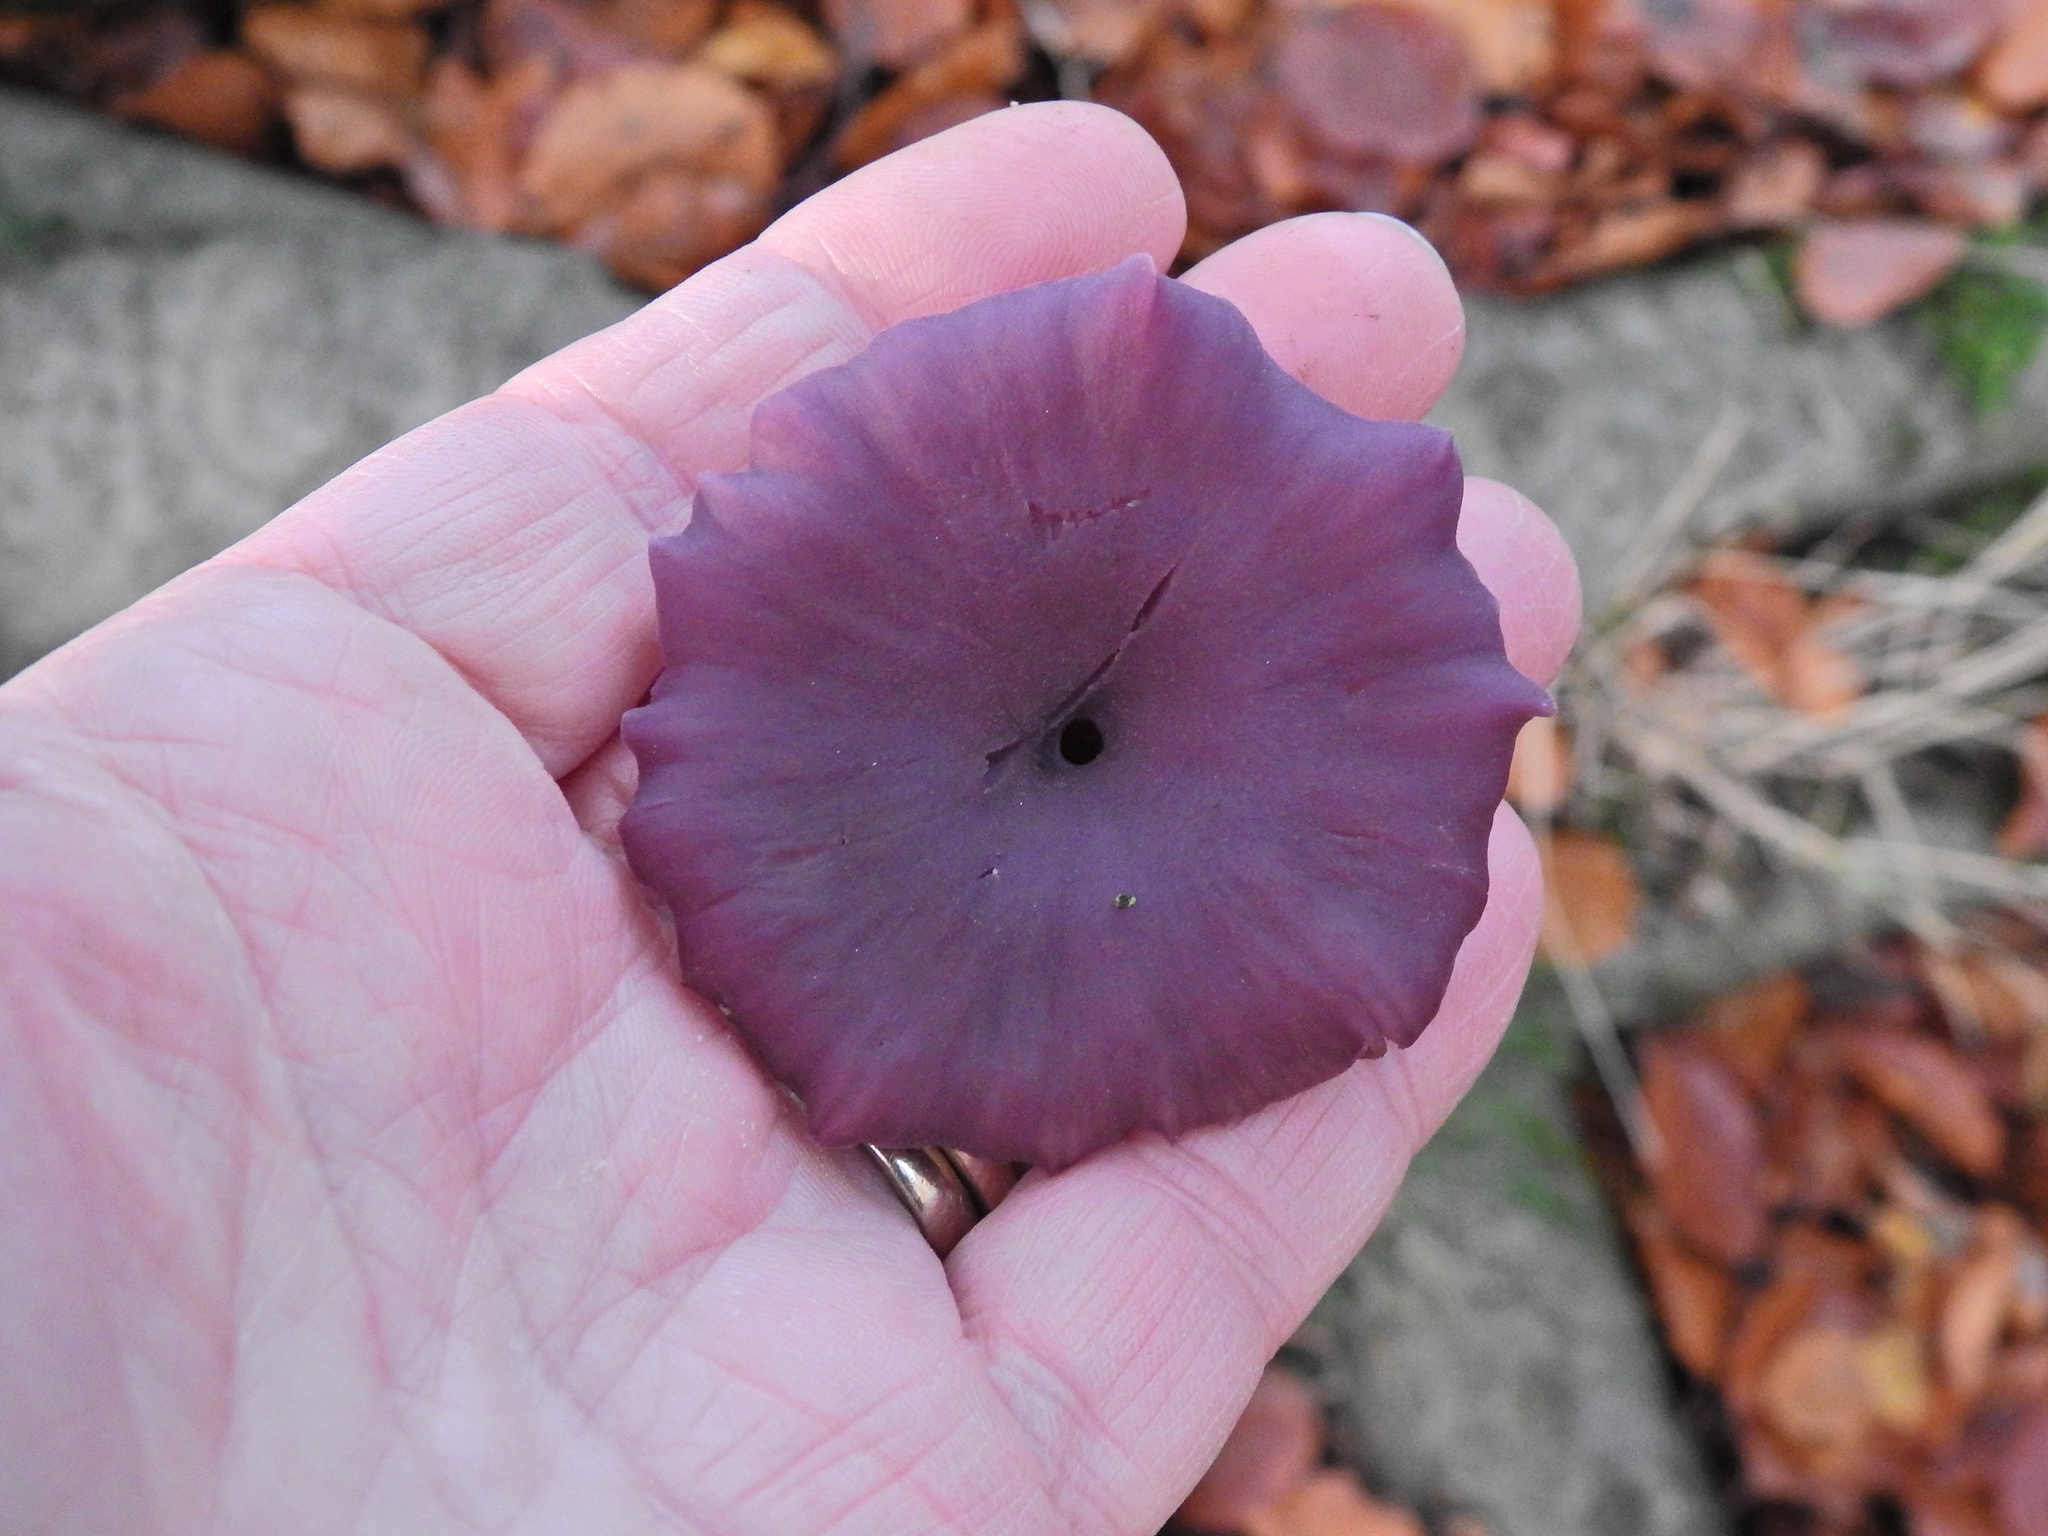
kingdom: Fungi
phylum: Basidiomycota
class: Agaricomycetes
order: Agaricales
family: Hydnangiaceae
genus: Laccaria
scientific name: Laccaria amethystina
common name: Amethyst deceiver
